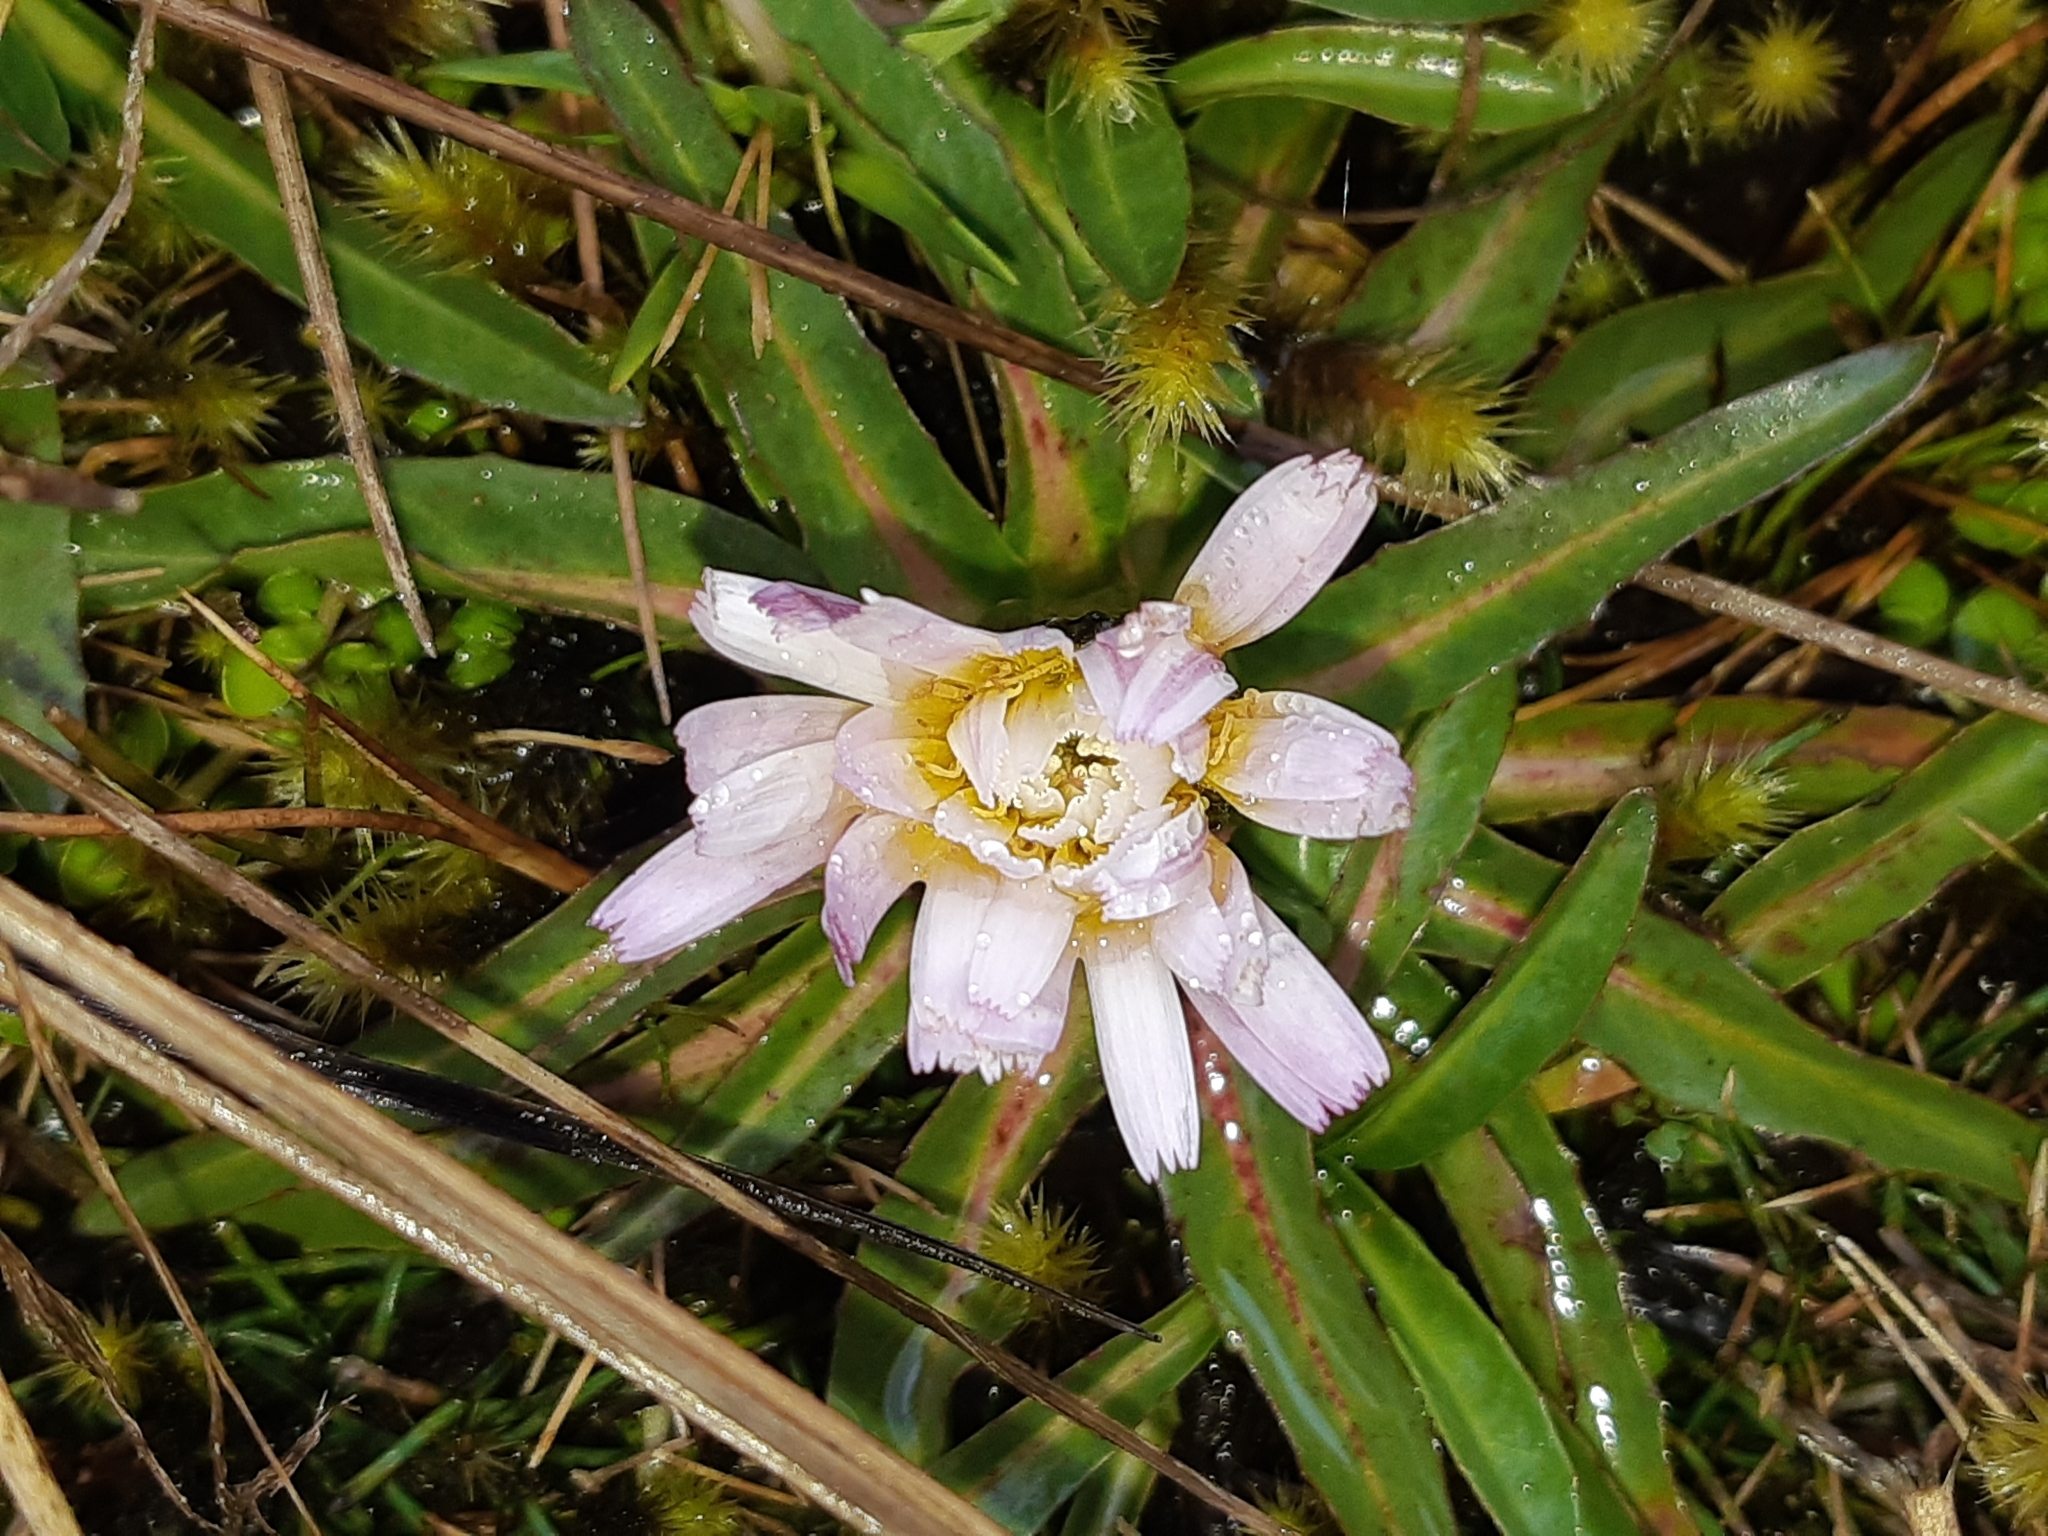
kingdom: Plantae
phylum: Tracheophyta
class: Magnoliopsida
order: Asterales
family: Asteraceae
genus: Hypochaeris
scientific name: Hypochaeris sessiliflora
